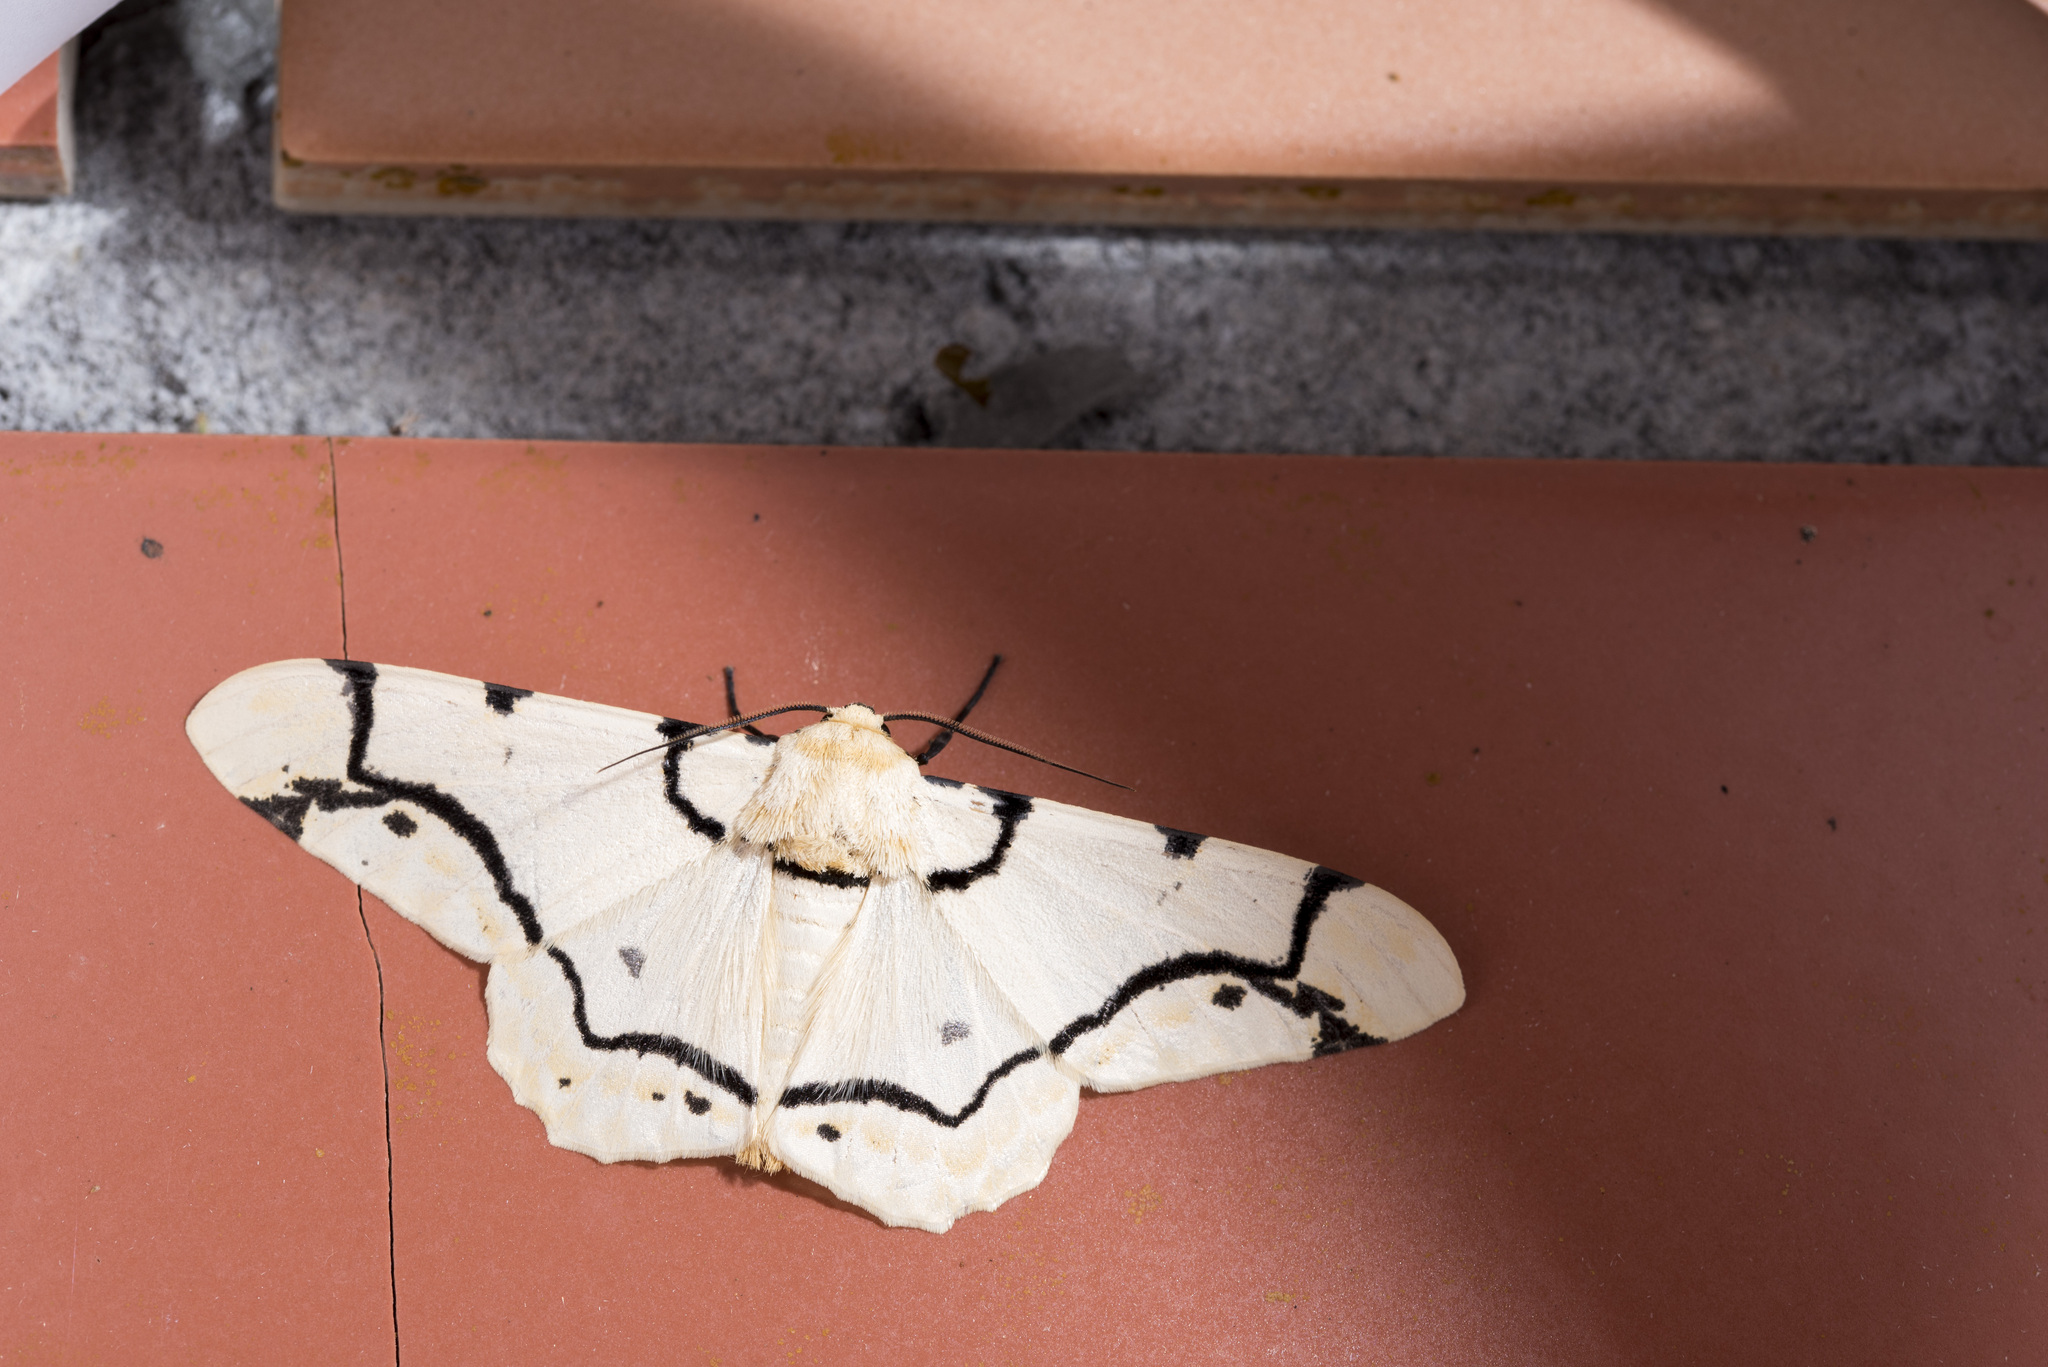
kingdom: Animalia
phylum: Arthropoda
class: Insecta
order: Lepidoptera
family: Geometridae
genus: Biston
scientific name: Biston perclara
